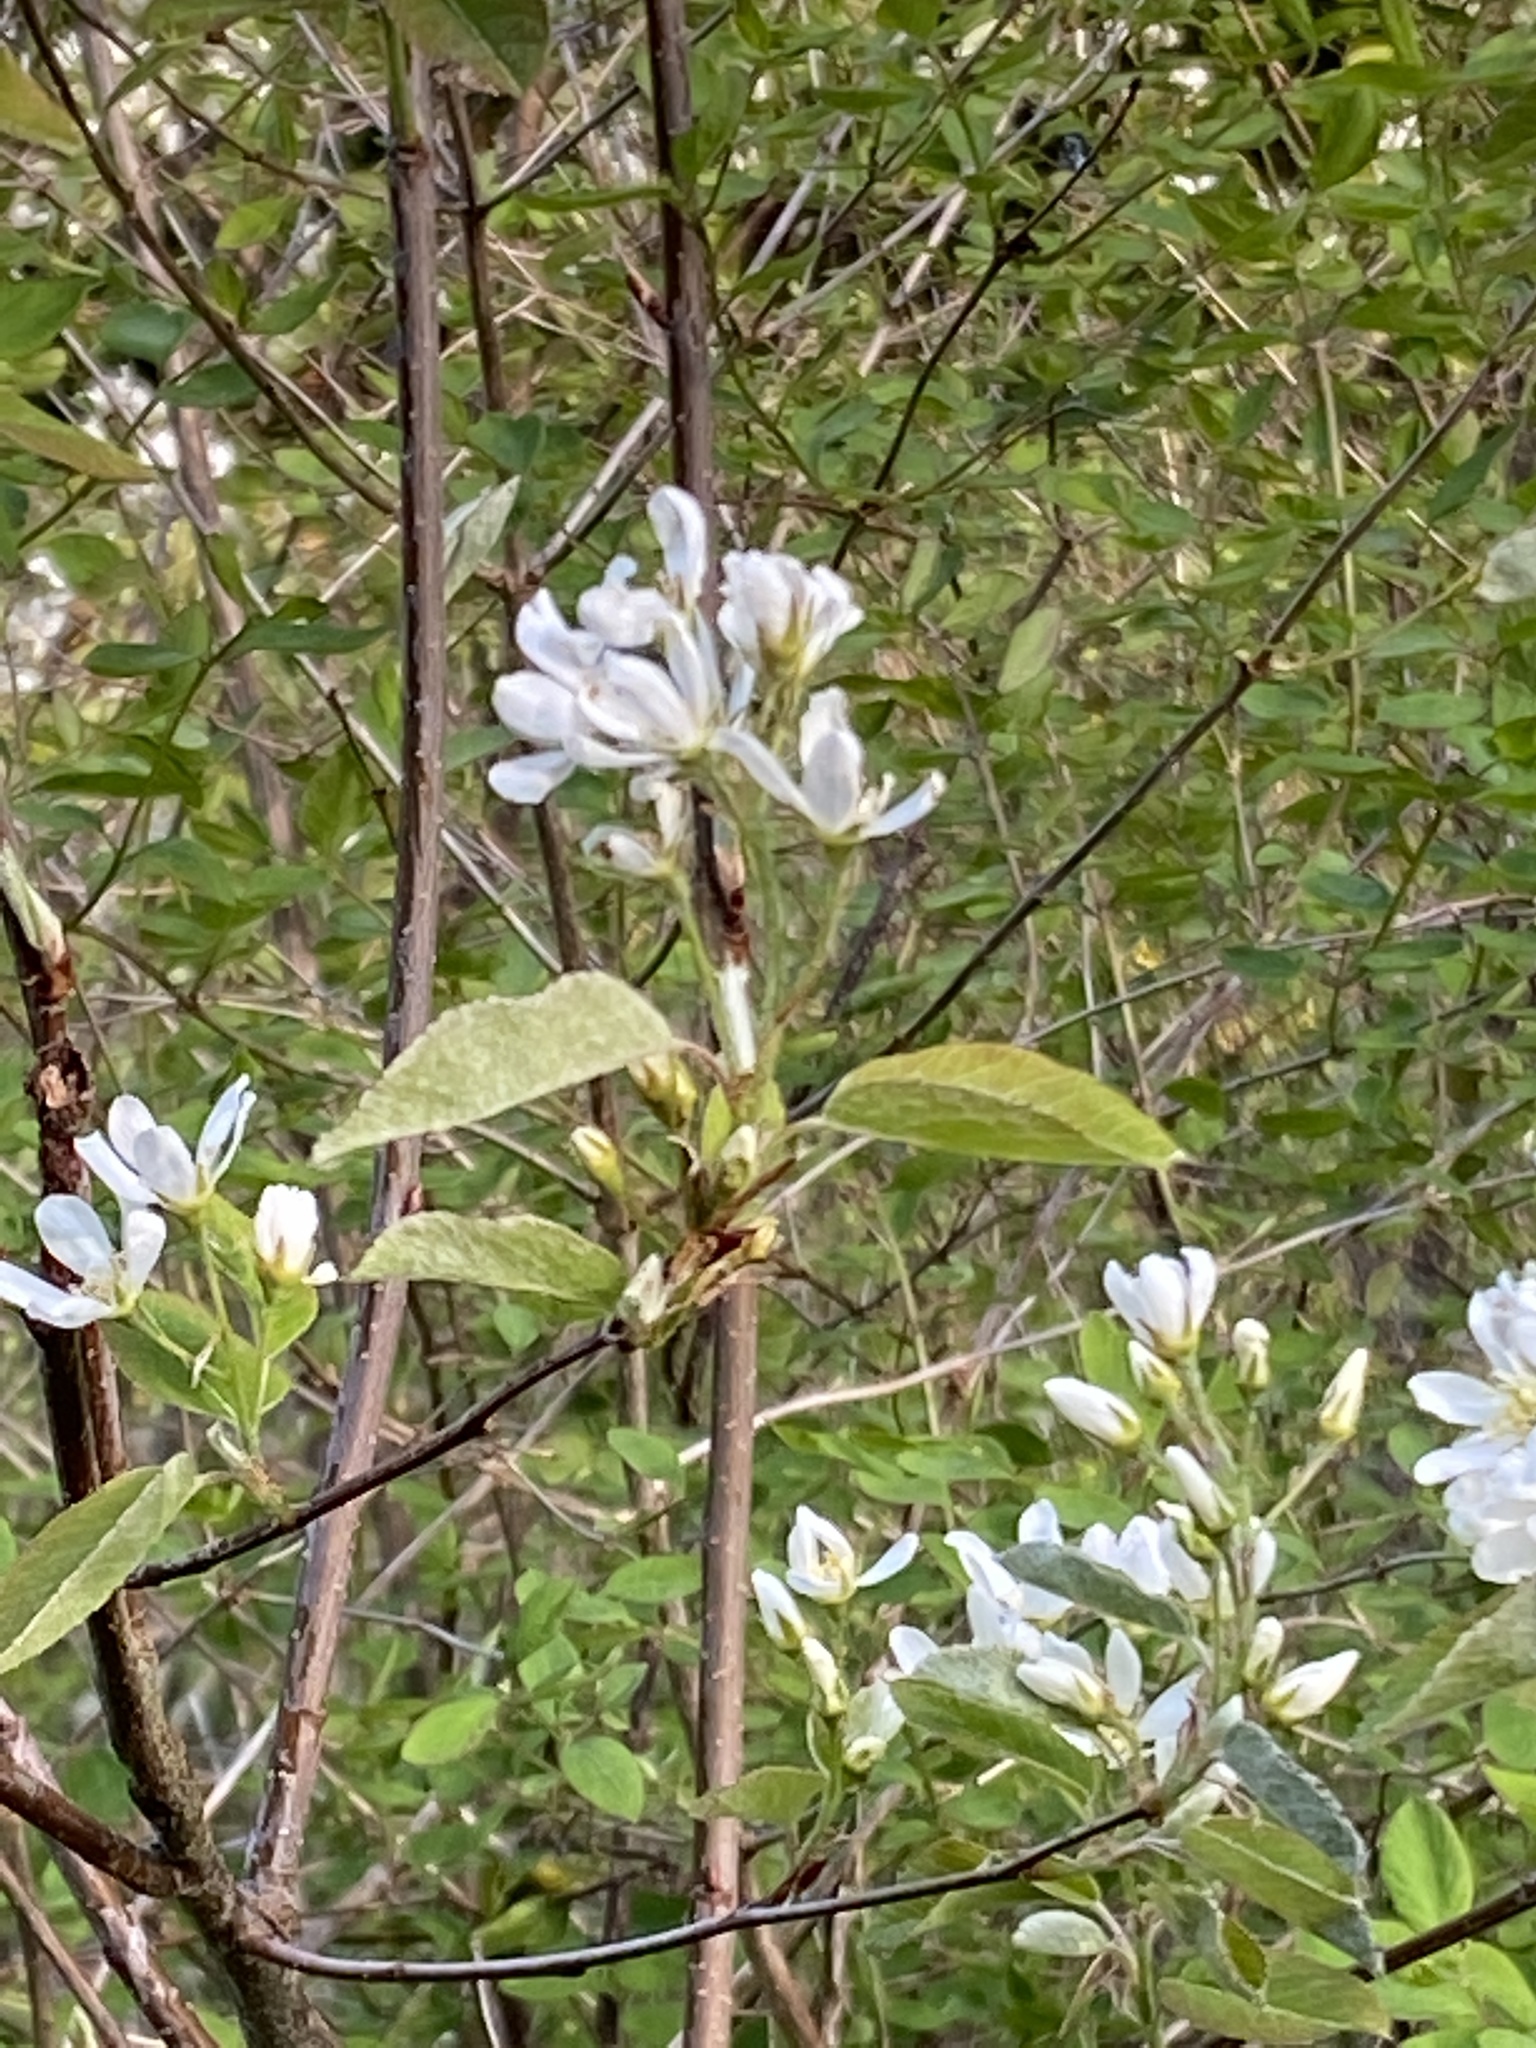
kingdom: Plantae
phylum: Tracheophyta
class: Magnoliopsida
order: Rosales
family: Rosaceae
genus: Amelanchier
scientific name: Amelanchier arborea
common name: Downy serviceberry
